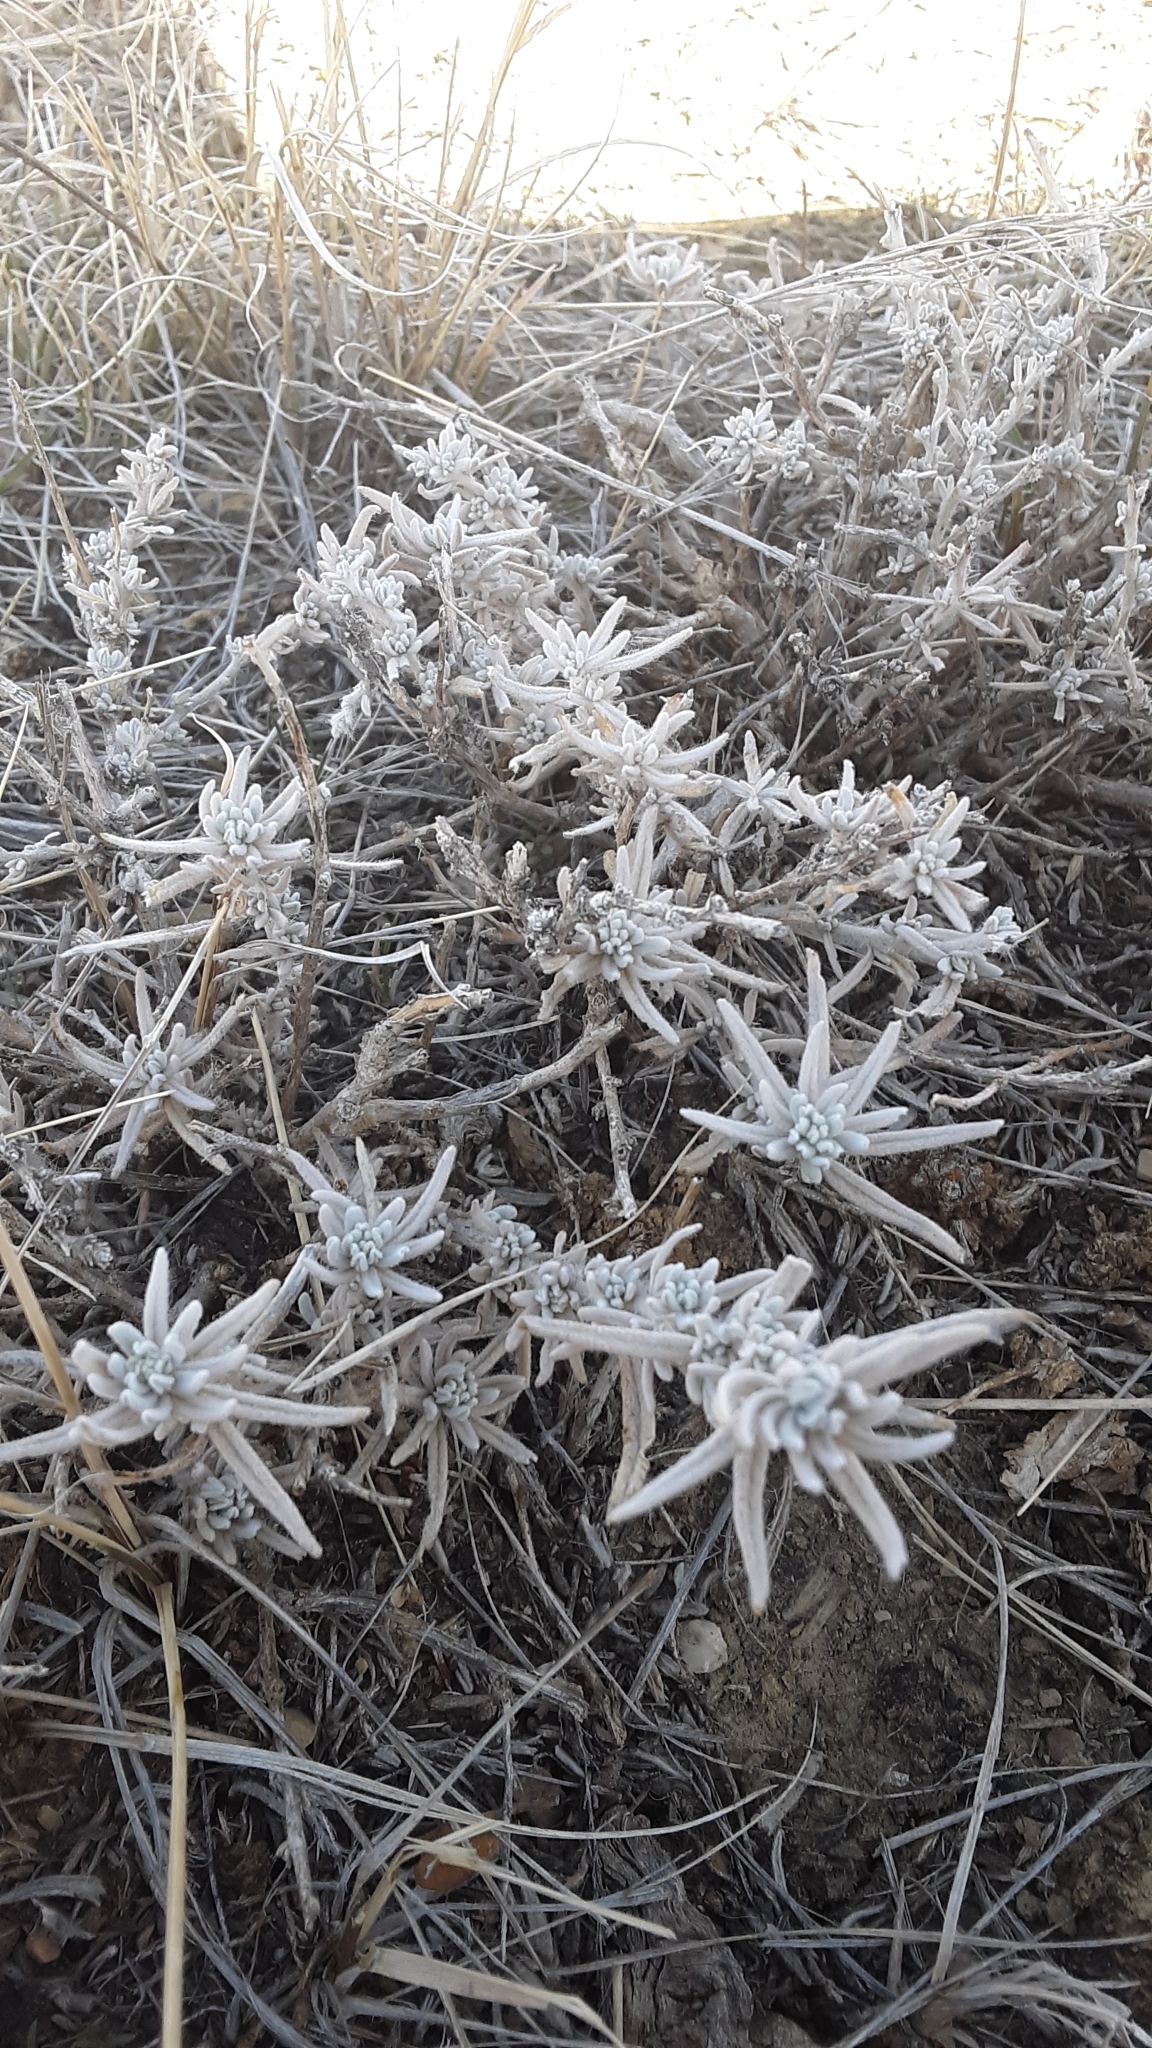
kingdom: Plantae
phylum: Tracheophyta
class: Magnoliopsida
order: Caryophyllales
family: Amaranthaceae
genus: Krascheninnikovia
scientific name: Krascheninnikovia lanata
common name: Winterfat
